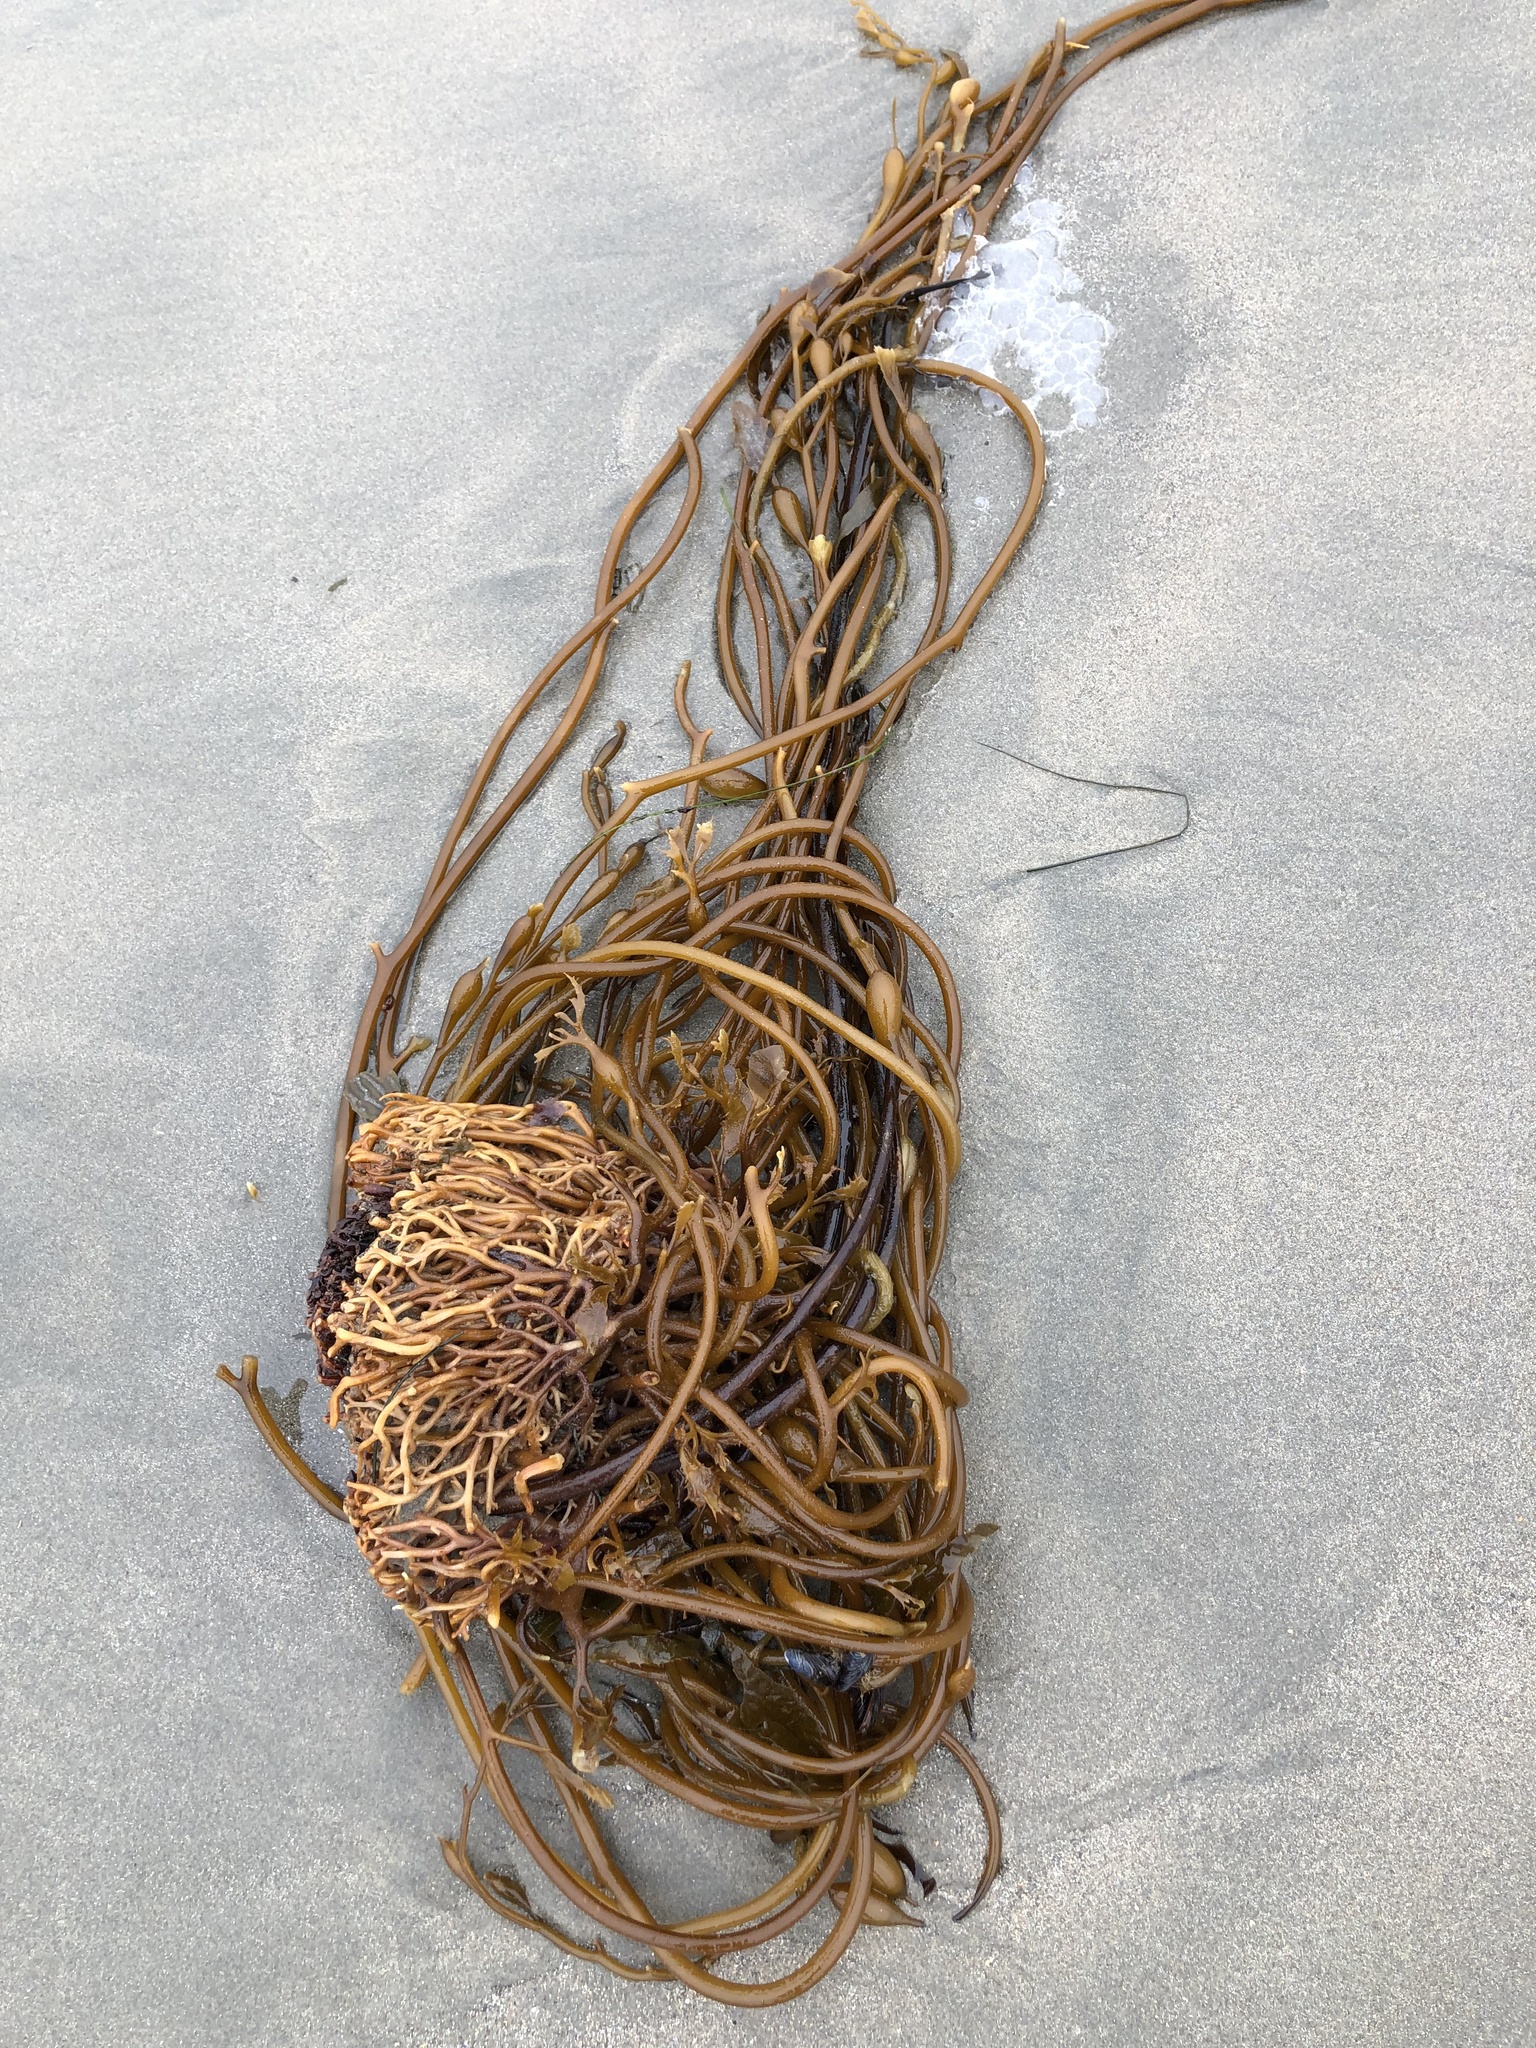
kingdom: Chromista
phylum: Ochrophyta
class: Phaeophyceae
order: Laminariales
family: Laminariaceae
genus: Macrocystis
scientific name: Macrocystis pyrifera
